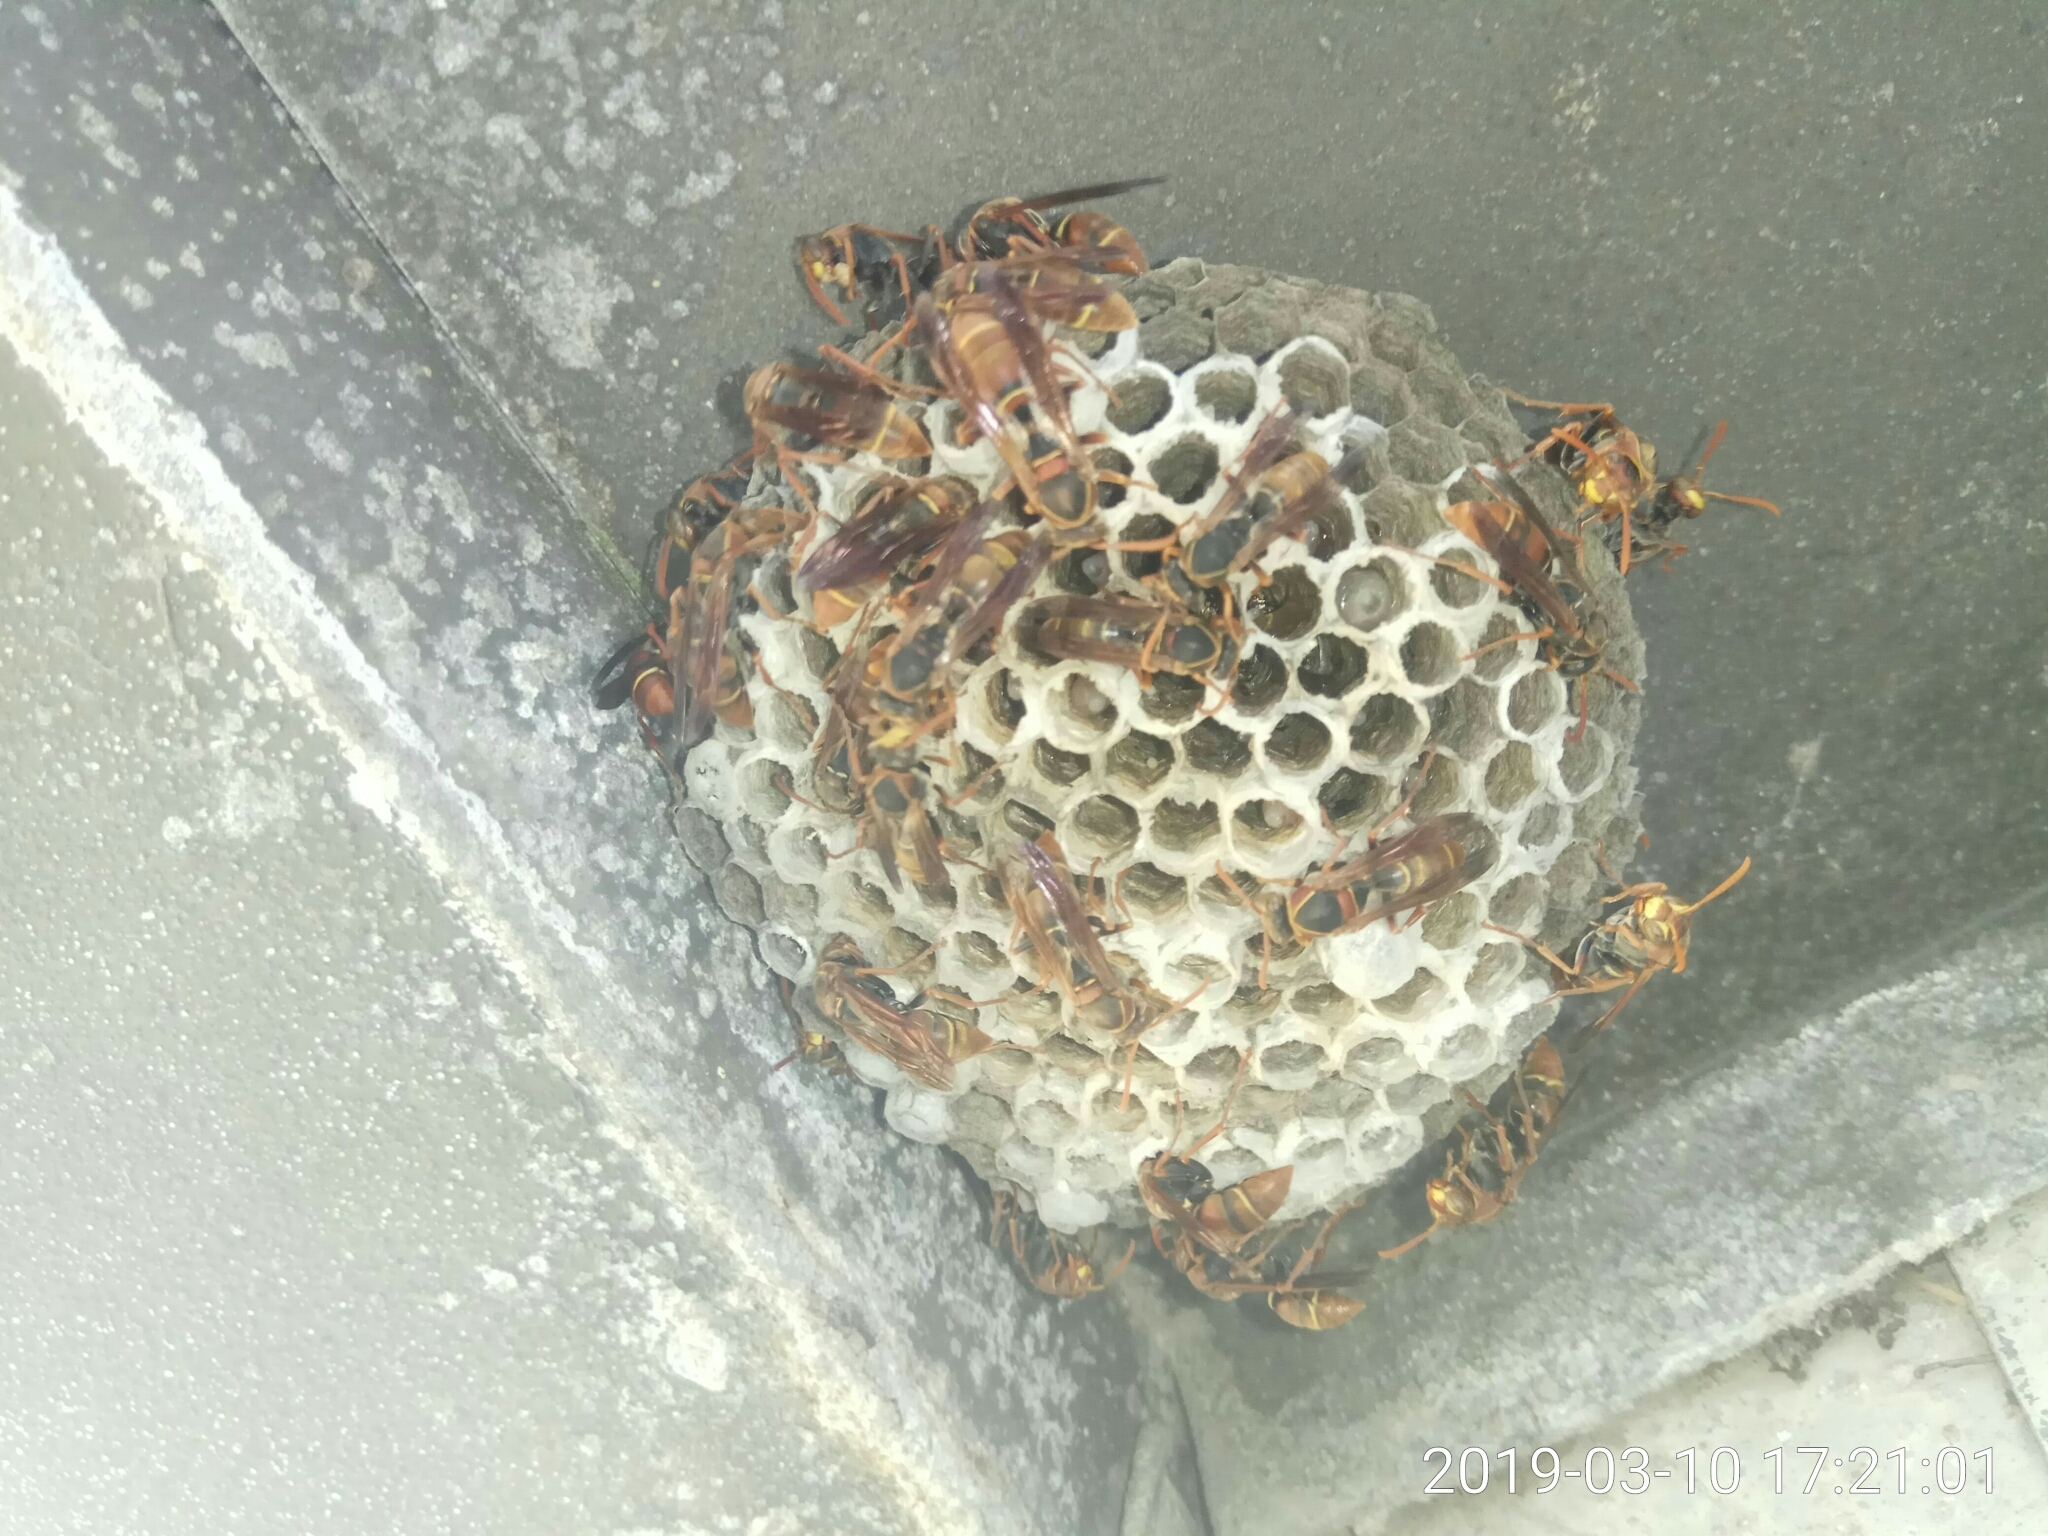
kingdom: Animalia
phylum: Arthropoda
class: Insecta
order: Hymenoptera
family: Eumenidae
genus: Polistes
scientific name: Polistes humilis
